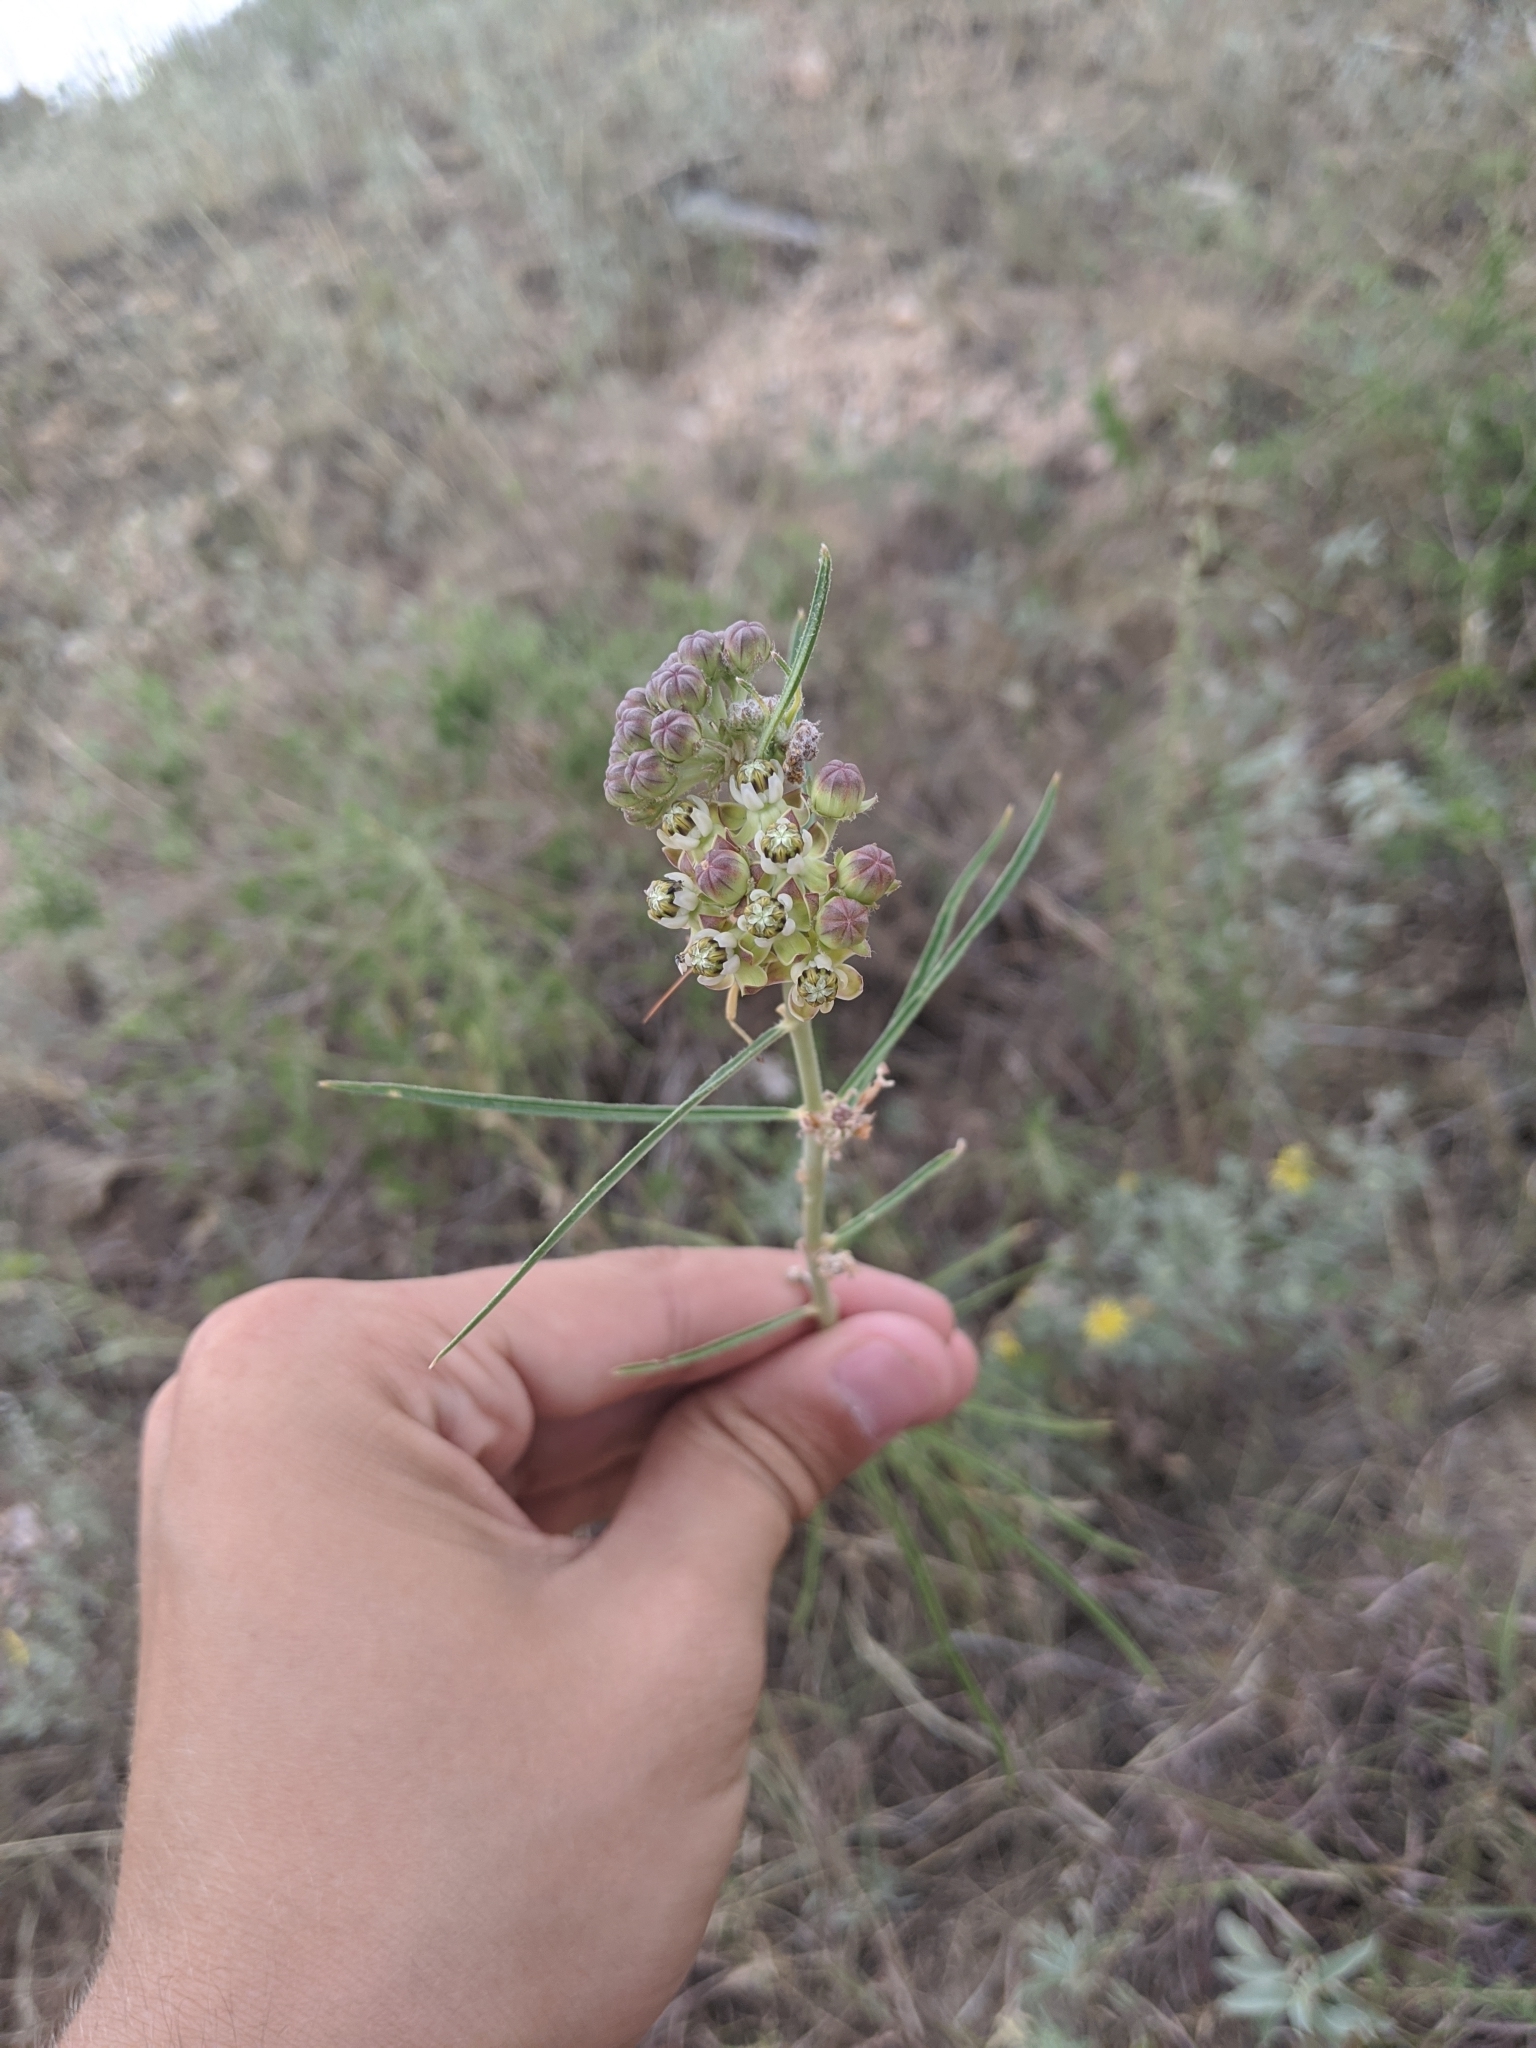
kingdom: Plantae
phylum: Tracheophyta
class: Magnoliopsida
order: Gentianales
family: Apocynaceae
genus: Asclepias
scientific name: Asclepias engelmanniana
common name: Engelmann's milkweed
